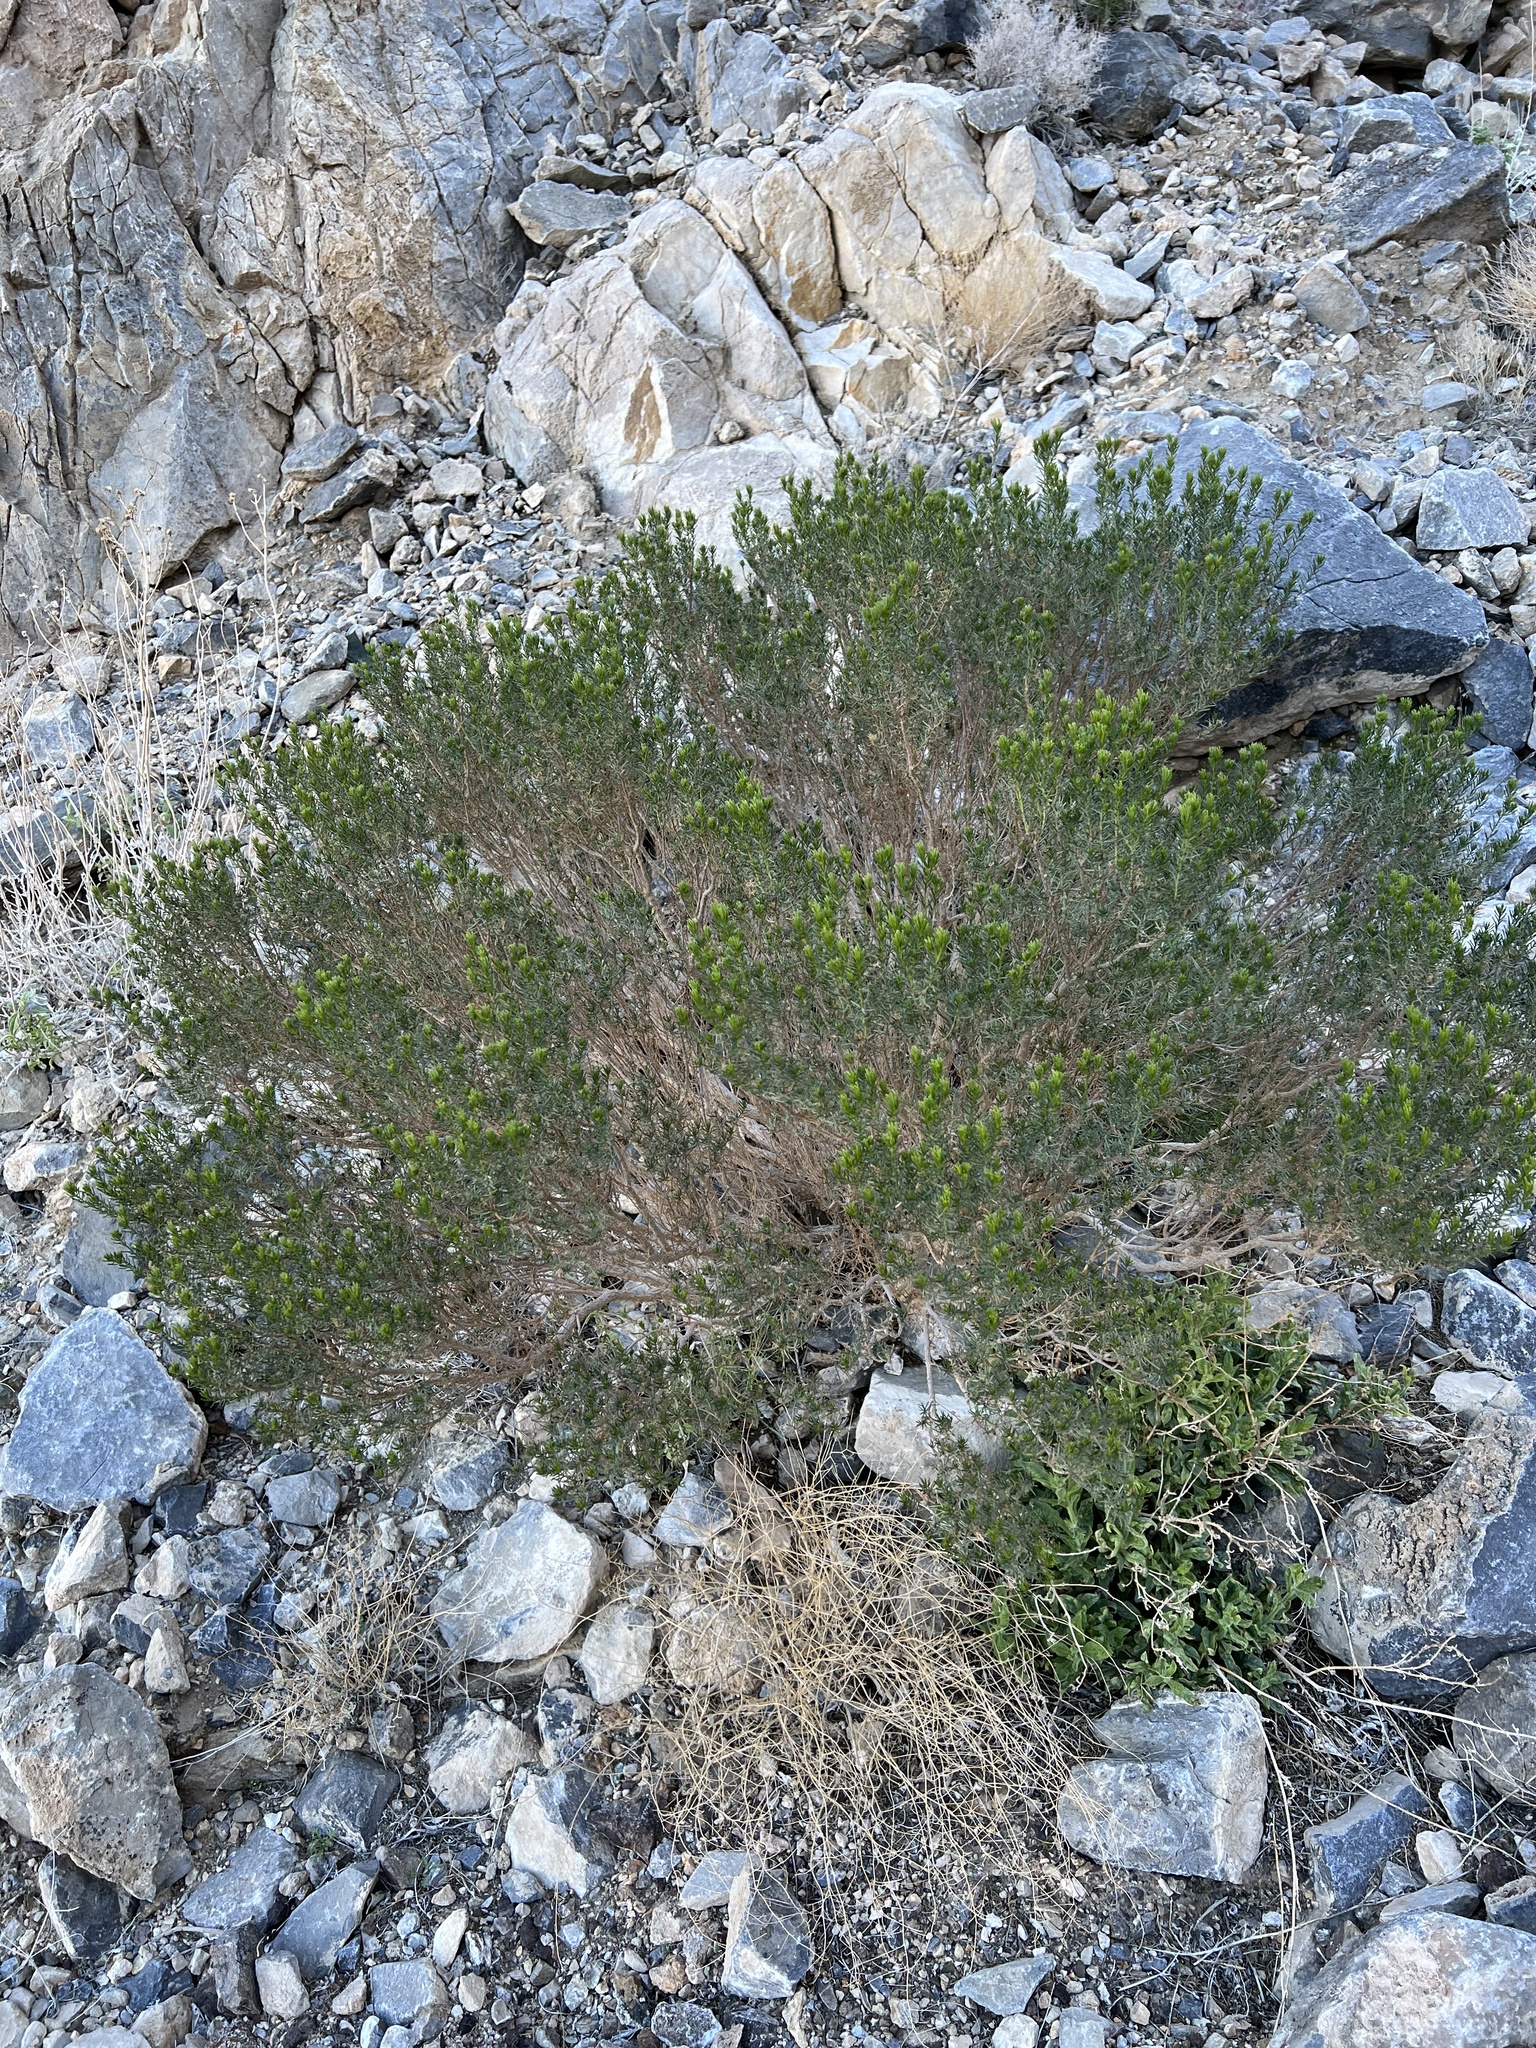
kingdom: Plantae
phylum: Tracheophyta
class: Magnoliopsida
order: Asterales
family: Asteraceae
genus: Peucephyllum
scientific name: Peucephyllum schottii
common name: Pygmy-cedar
